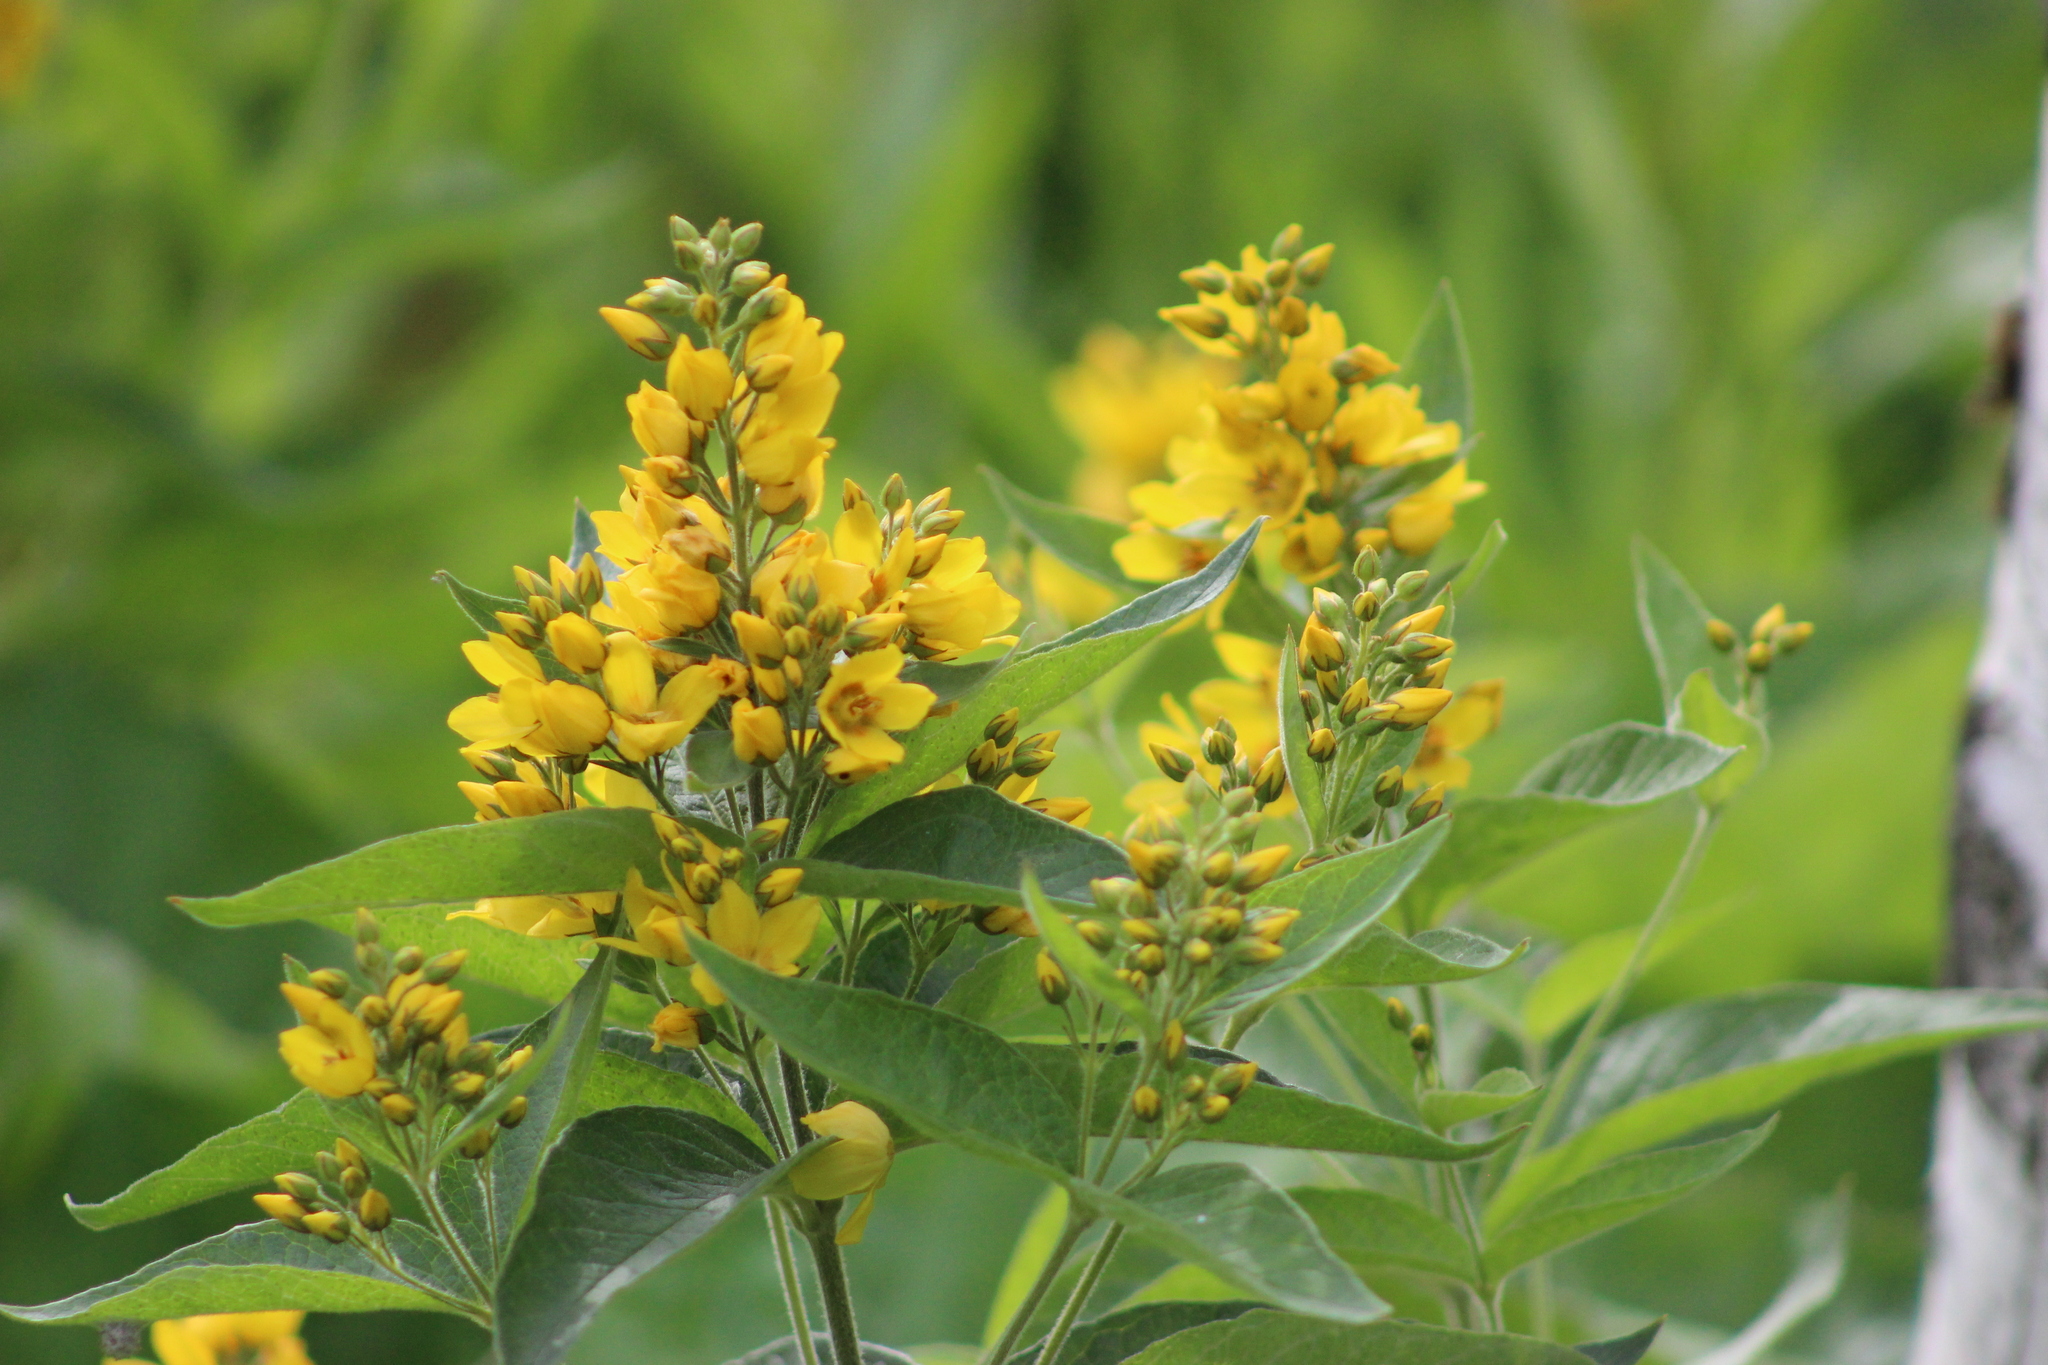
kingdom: Plantae
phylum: Tracheophyta
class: Magnoliopsida
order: Ericales
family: Primulaceae
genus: Lysimachia
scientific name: Lysimachia vulgaris
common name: Yellow loosestrife
